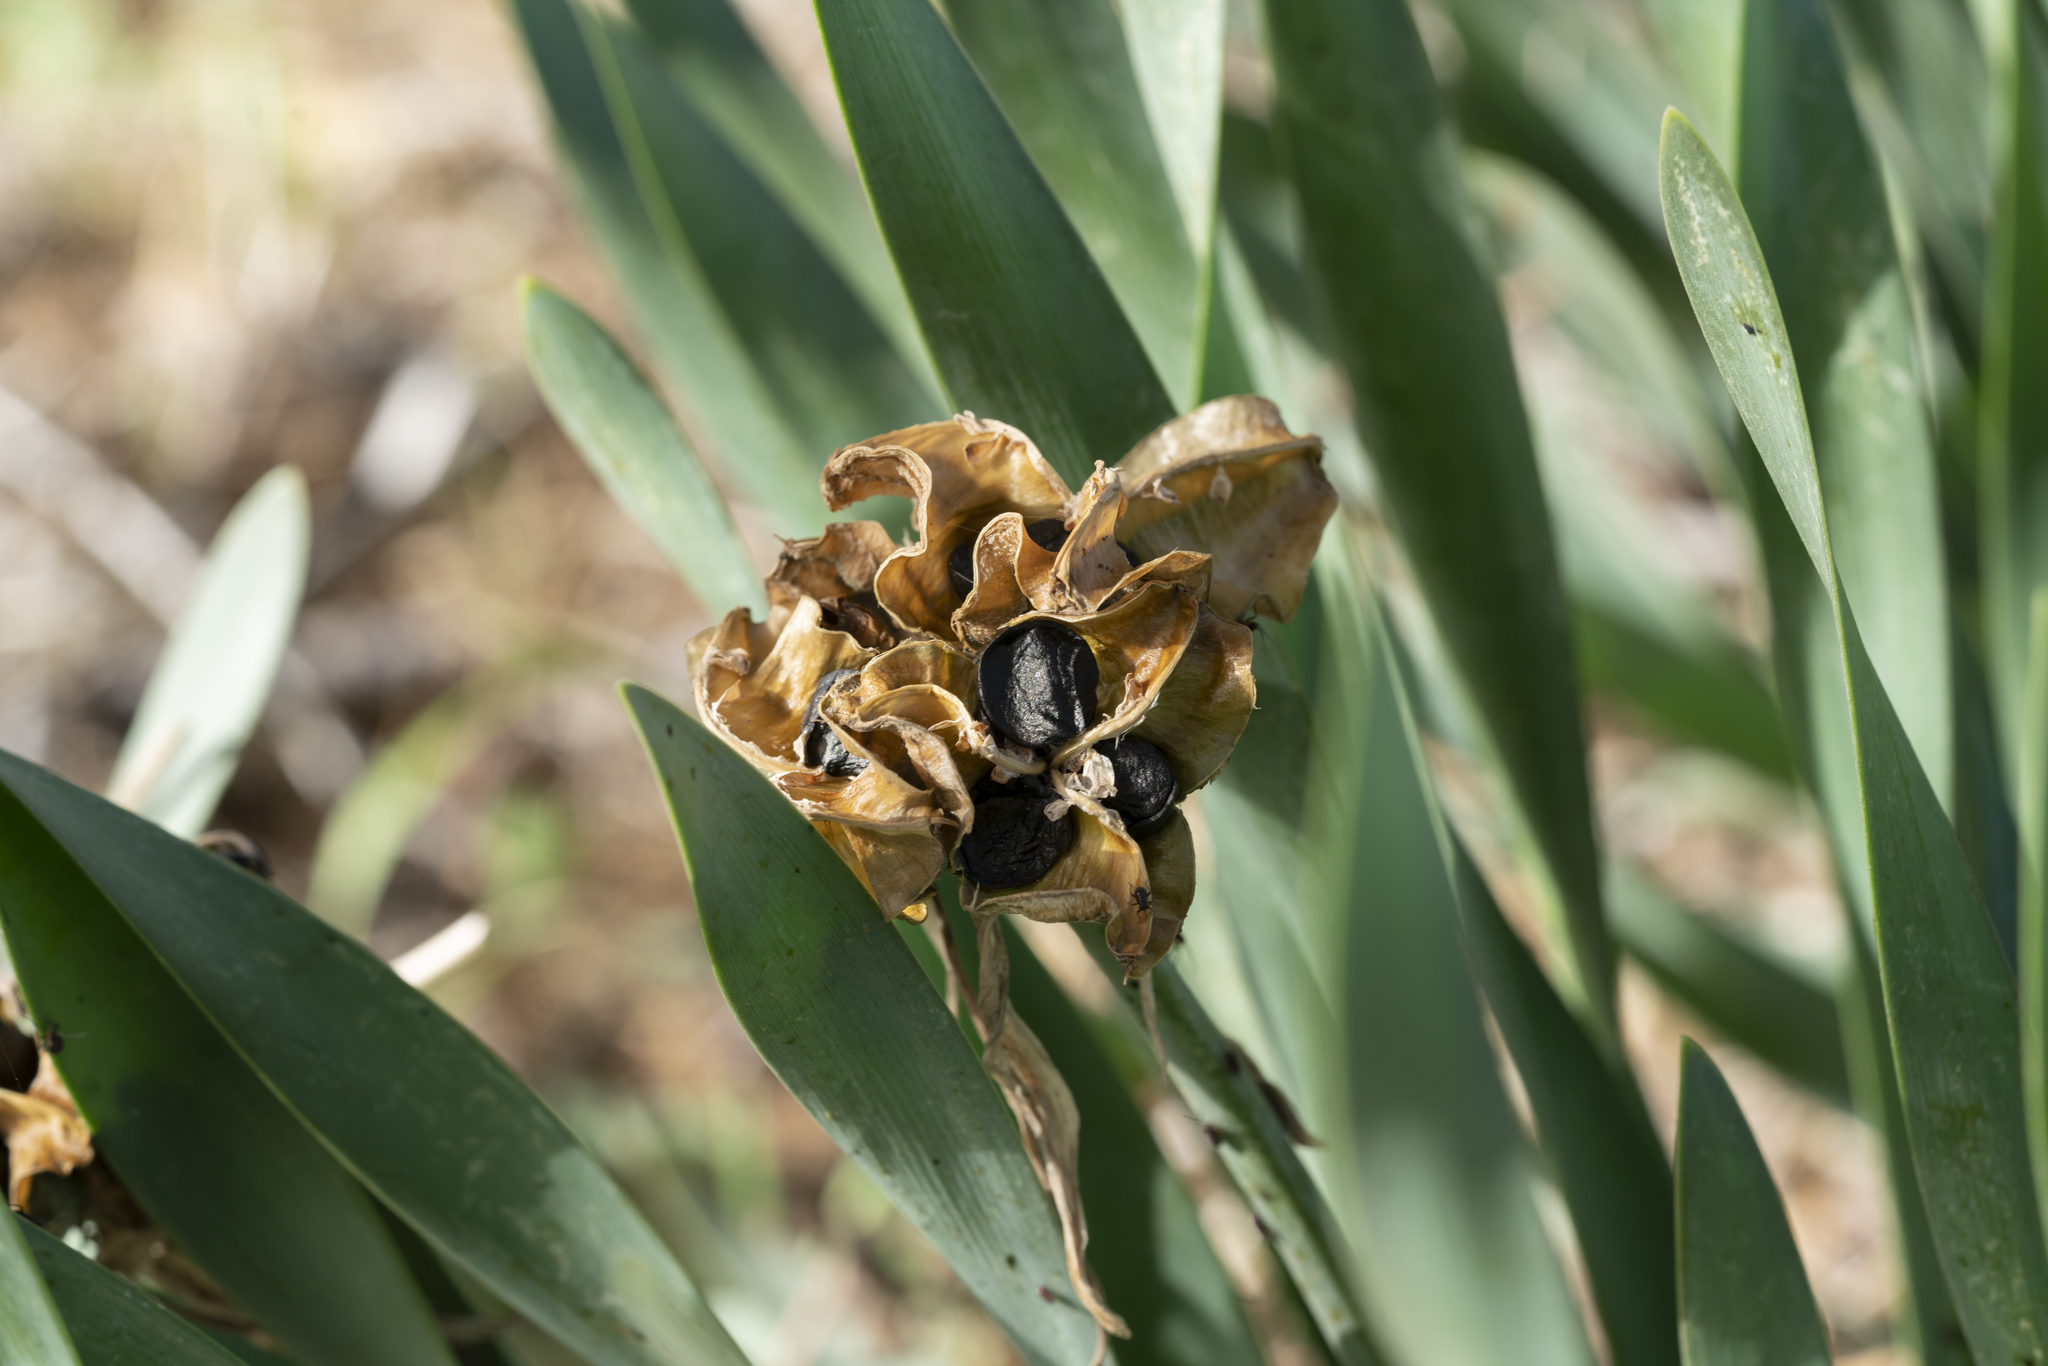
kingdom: Plantae
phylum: Tracheophyta
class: Liliopsida
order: Asparagales
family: Amaryllidaceae
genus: Pancratium
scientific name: Pancratium maritimum
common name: Sea-daffodil
